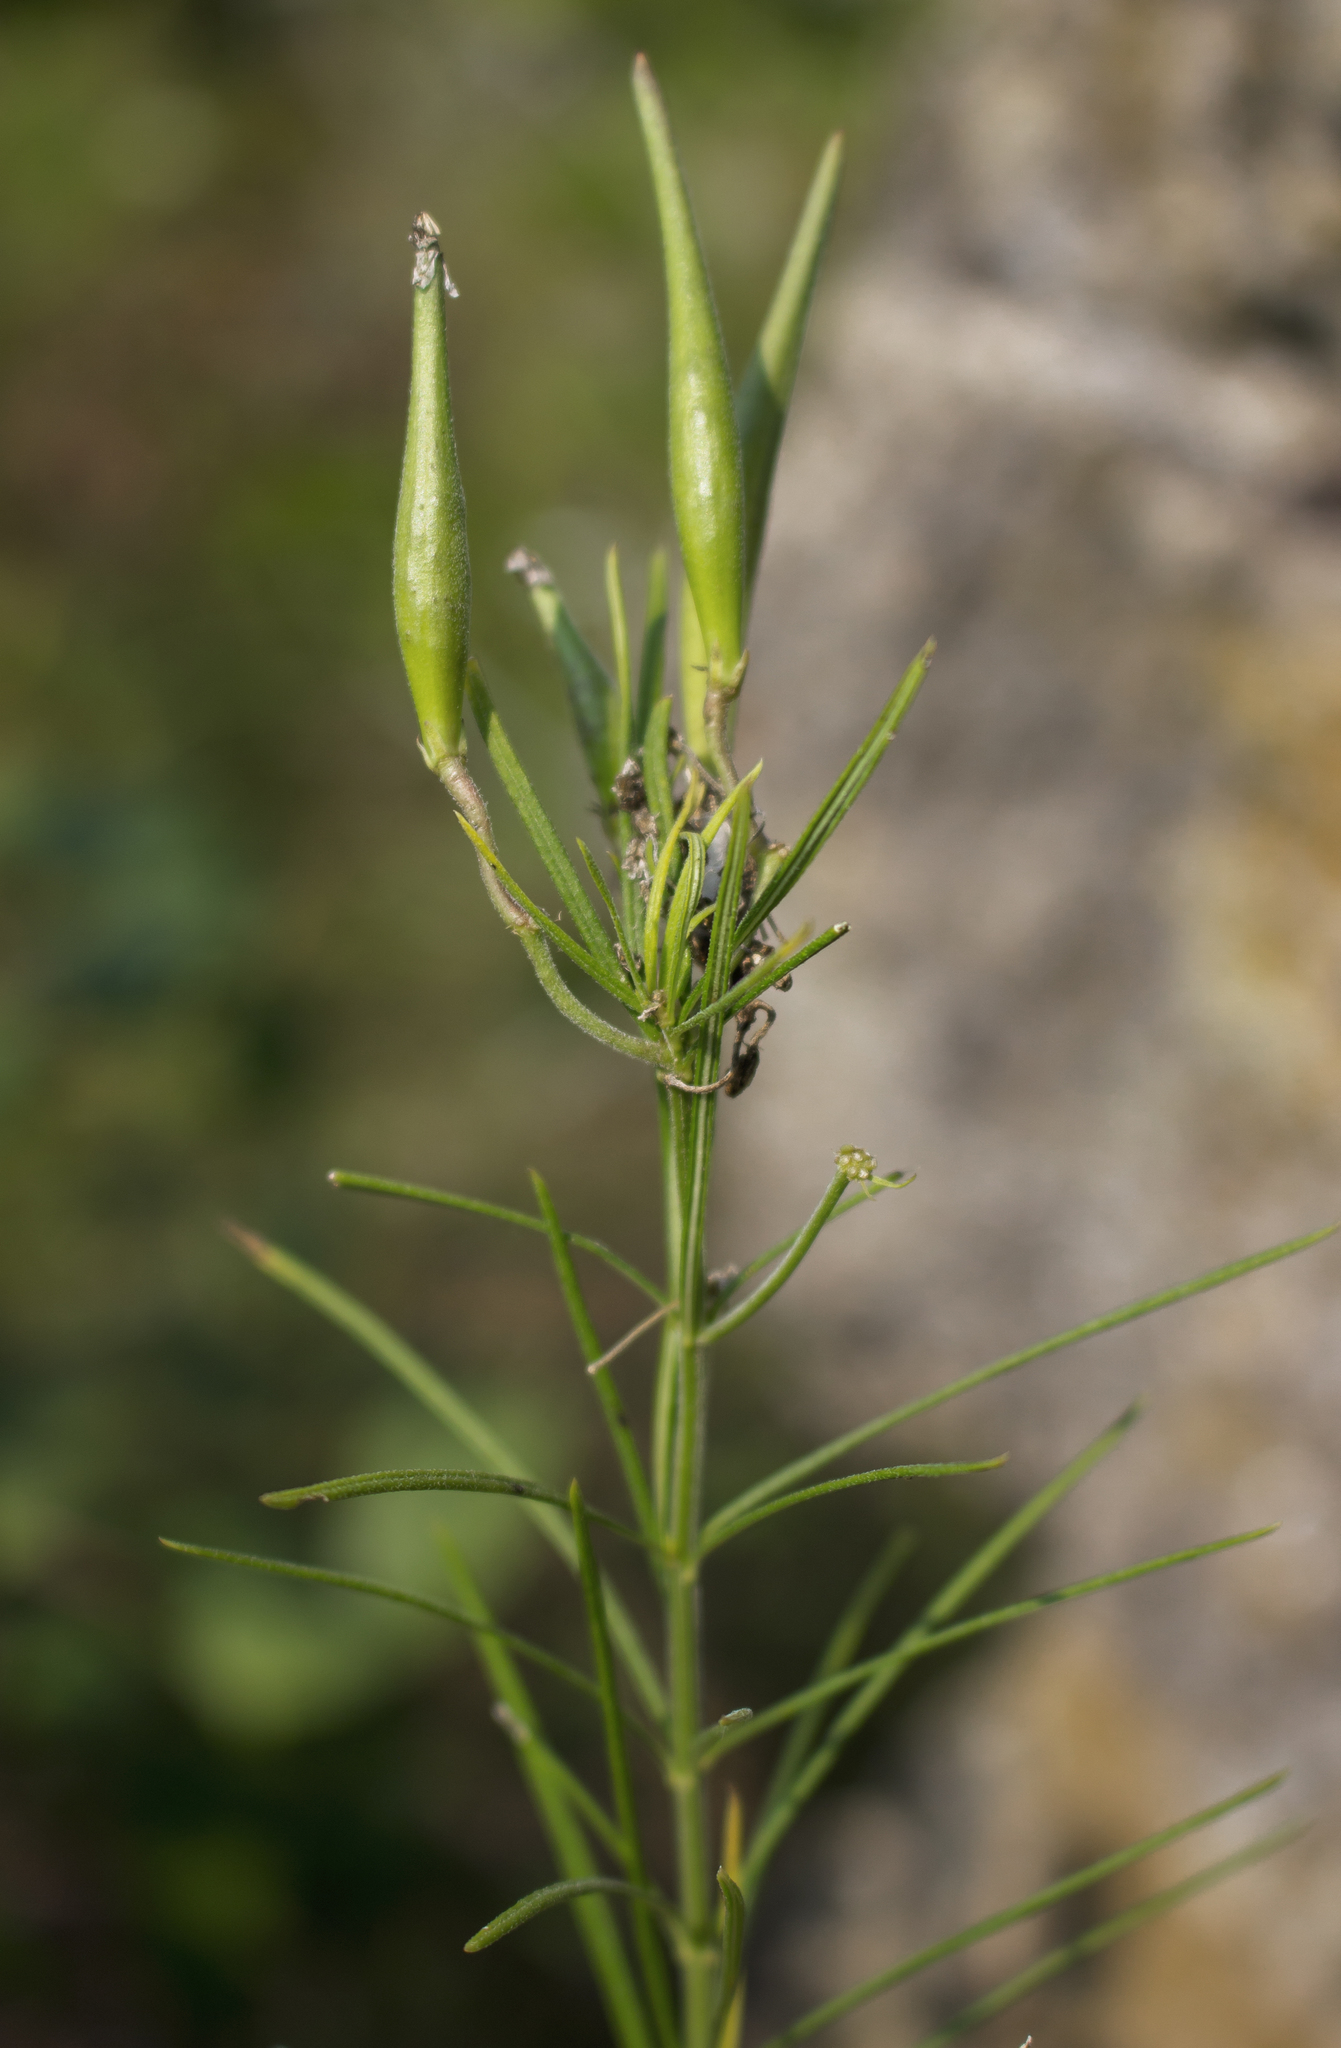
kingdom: Plantae
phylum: Tracheophyta
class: Magnoliopsida
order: Gentianales
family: Apocynaceae
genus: Asclepias
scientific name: Asclepias verticillata
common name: Eastern whorled milkweed
